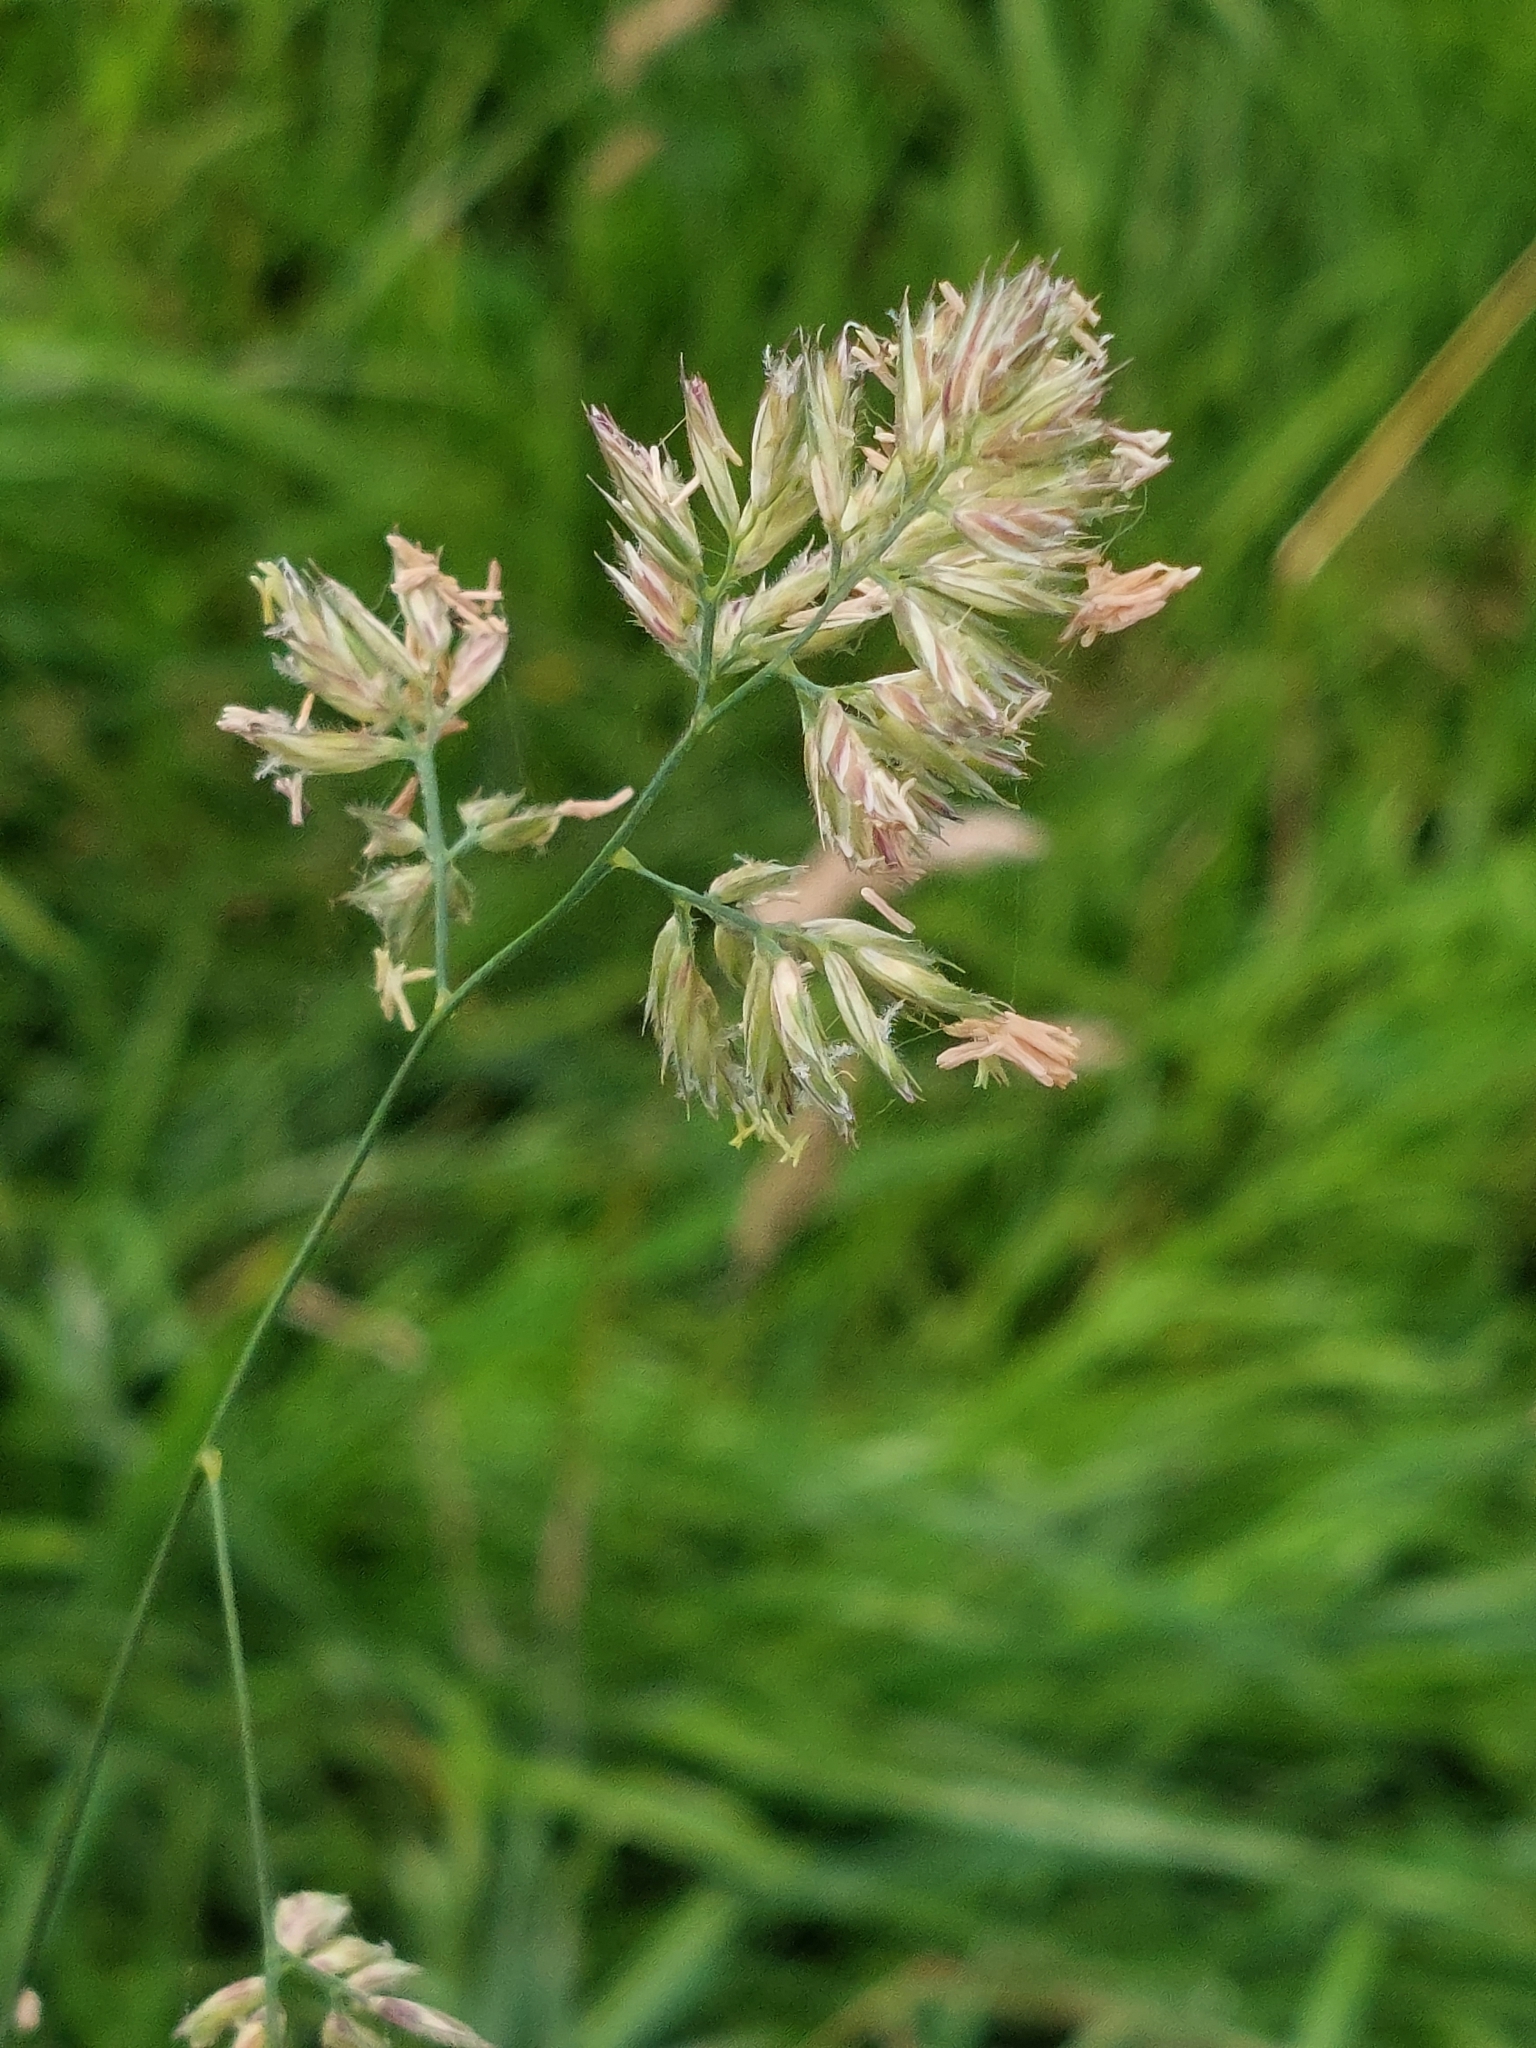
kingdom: Plantae
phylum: Tracheophyta
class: Liliopsida
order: Poales
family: Poaceae
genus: Dactylis
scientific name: Dactylis glomerata
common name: Orchardgrass
